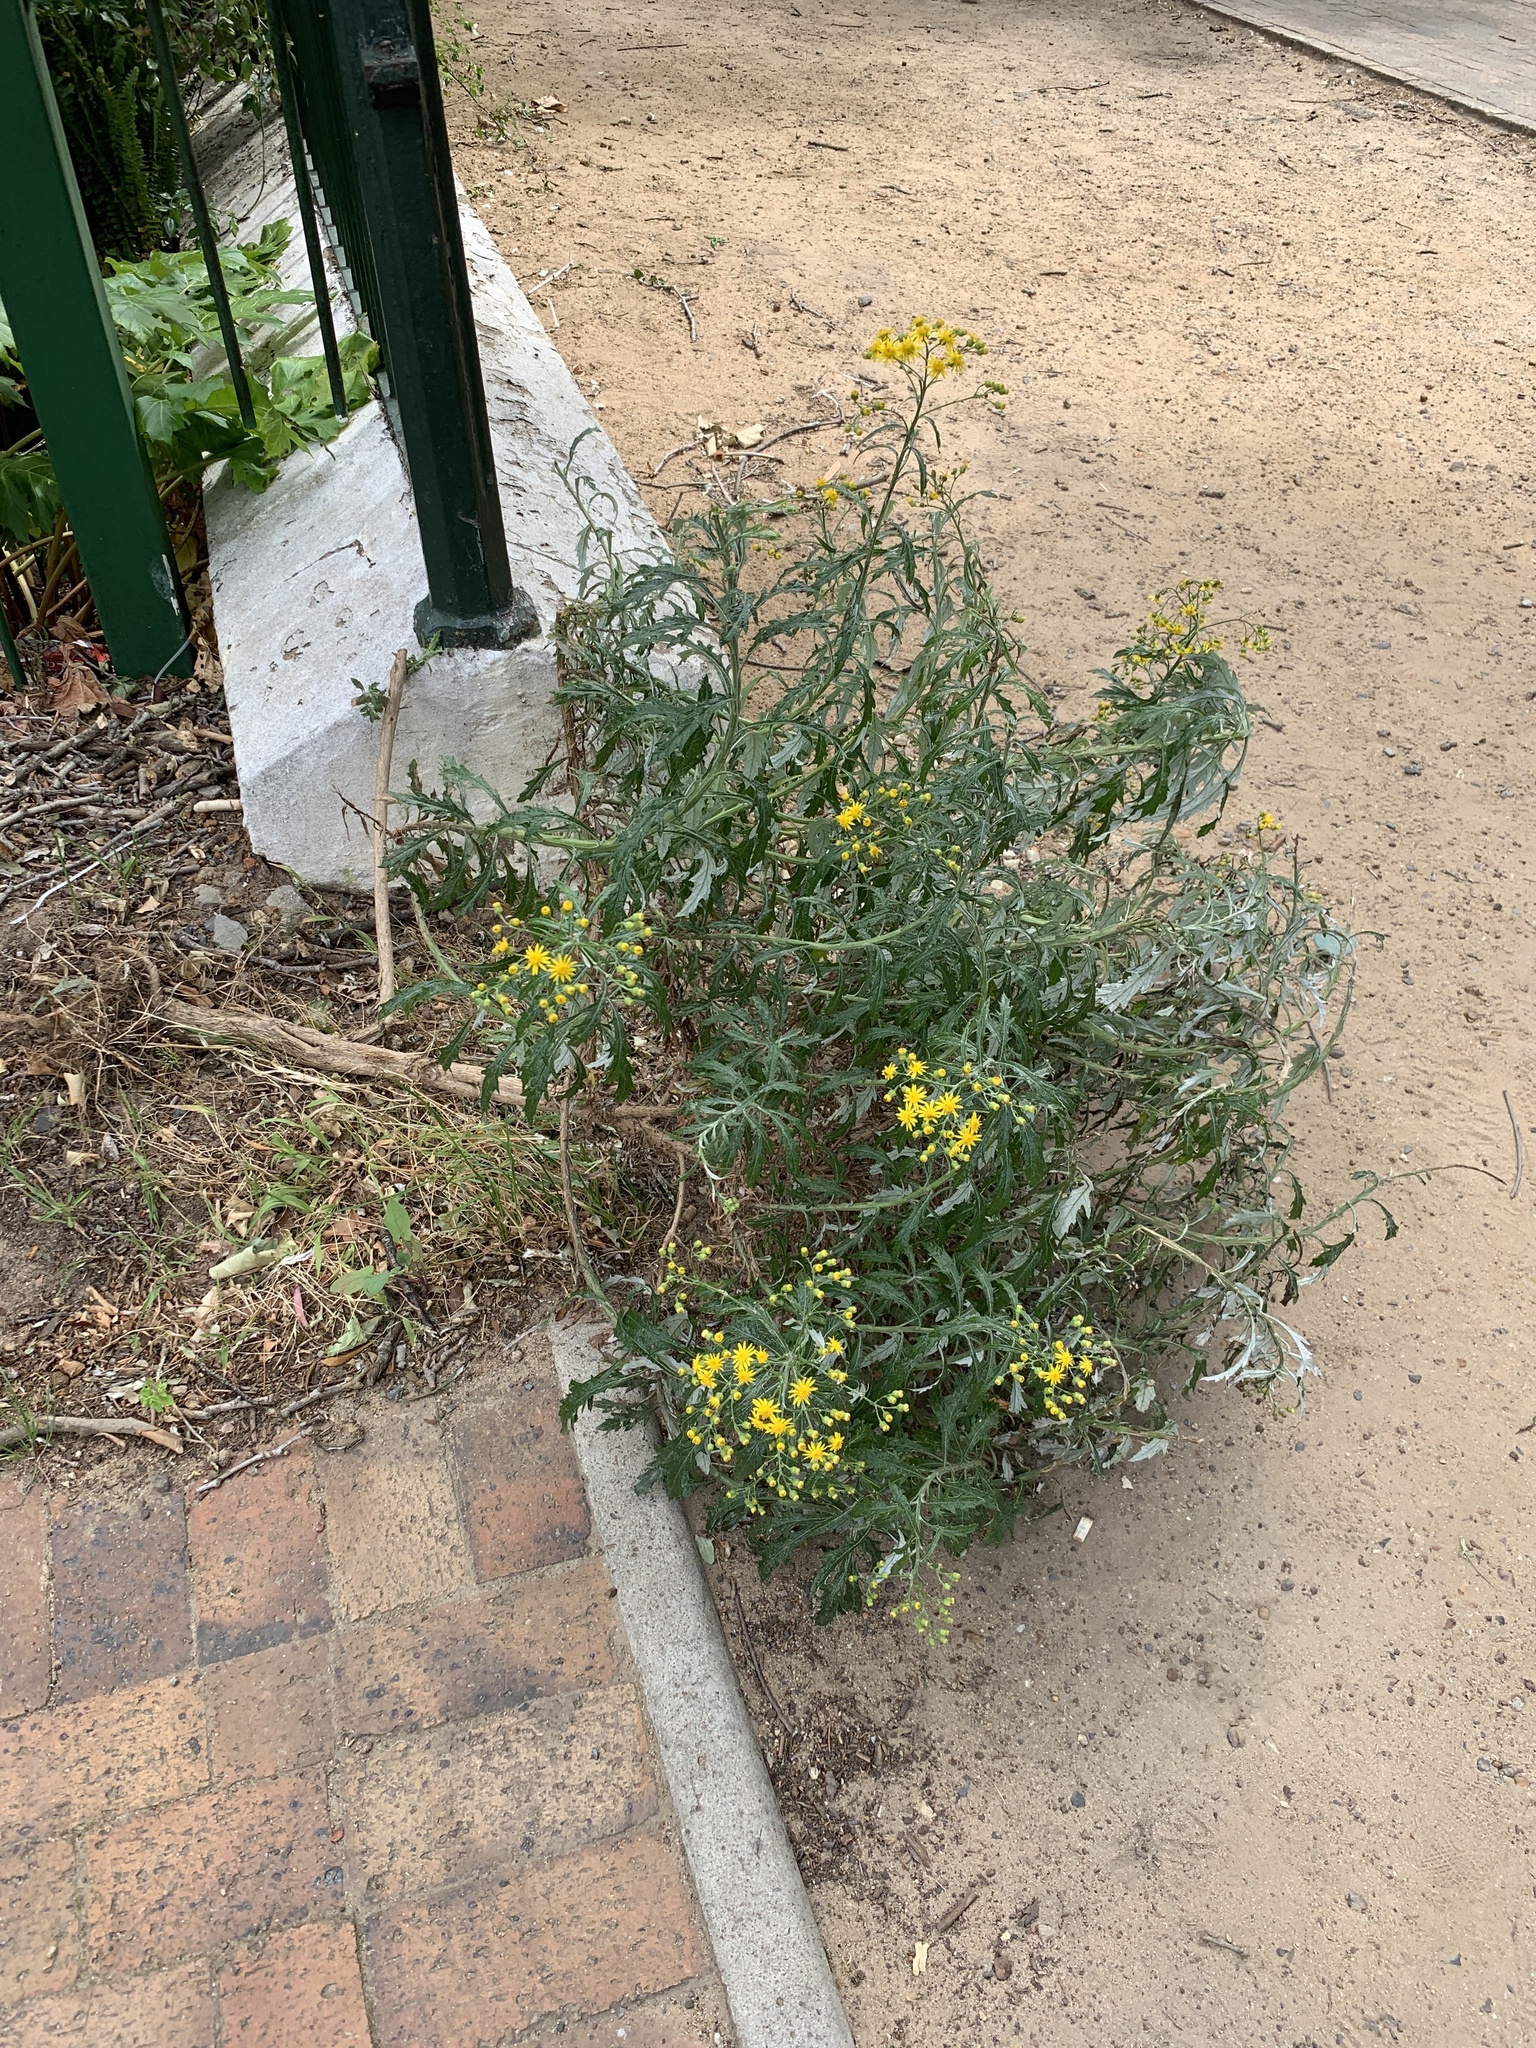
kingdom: Plantae
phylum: Tracheophyta
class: Magnoliopsida
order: Asterales
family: Asteraceae
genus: Senecio
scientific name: Senecio pterophorus
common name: Shoddy ragwort
